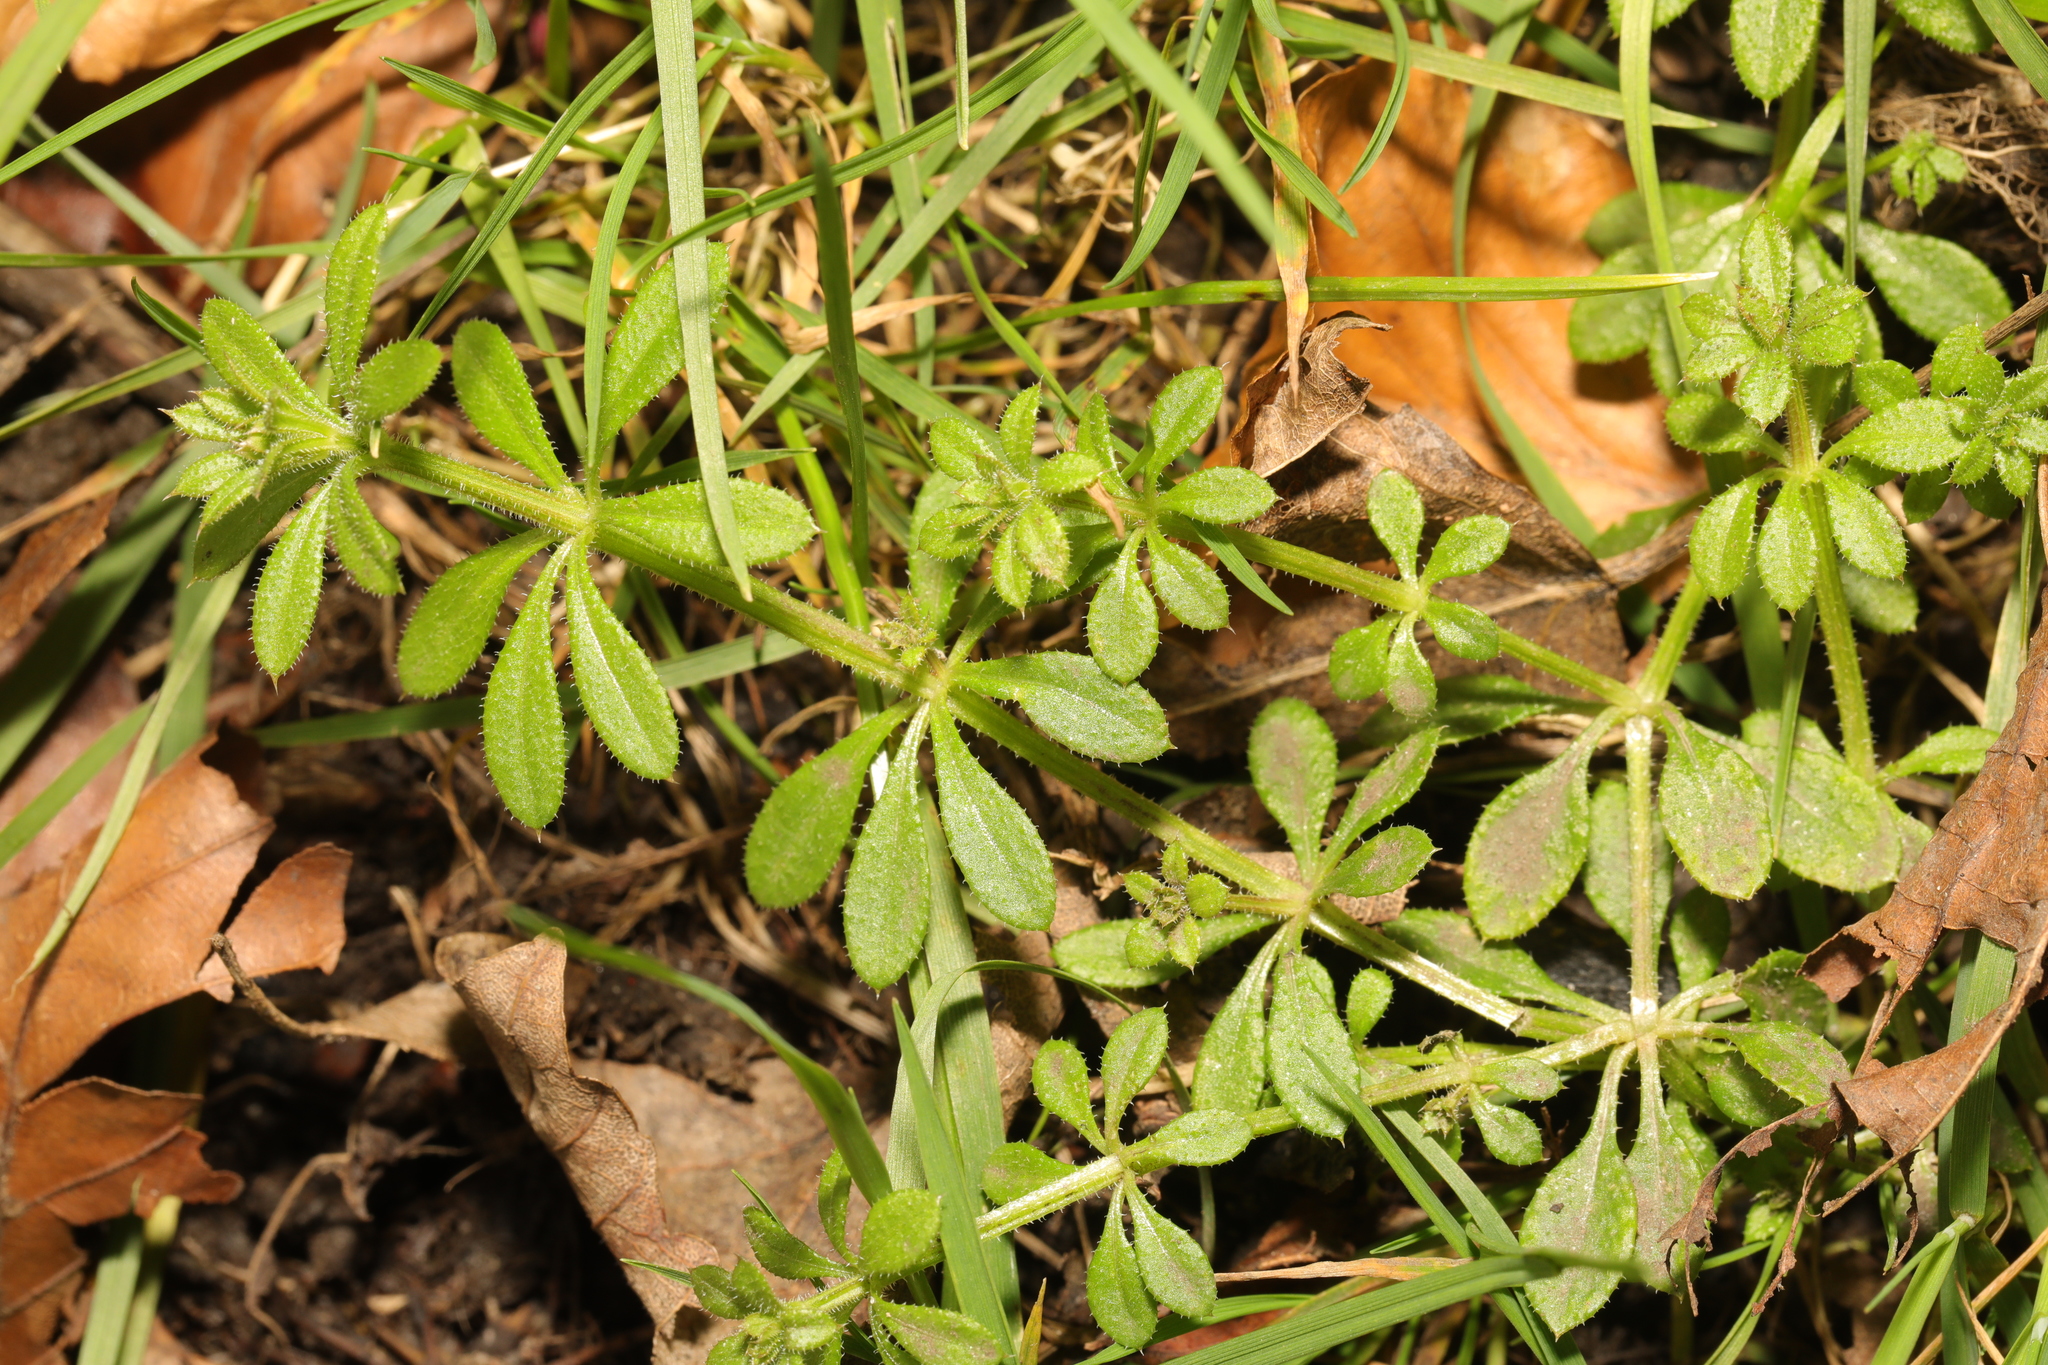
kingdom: Plantae
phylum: Tracheophyta
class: Magnoliopsida
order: Gentianales
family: Rubiaceae
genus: Galium
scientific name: Galium aparine
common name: Cleavers
